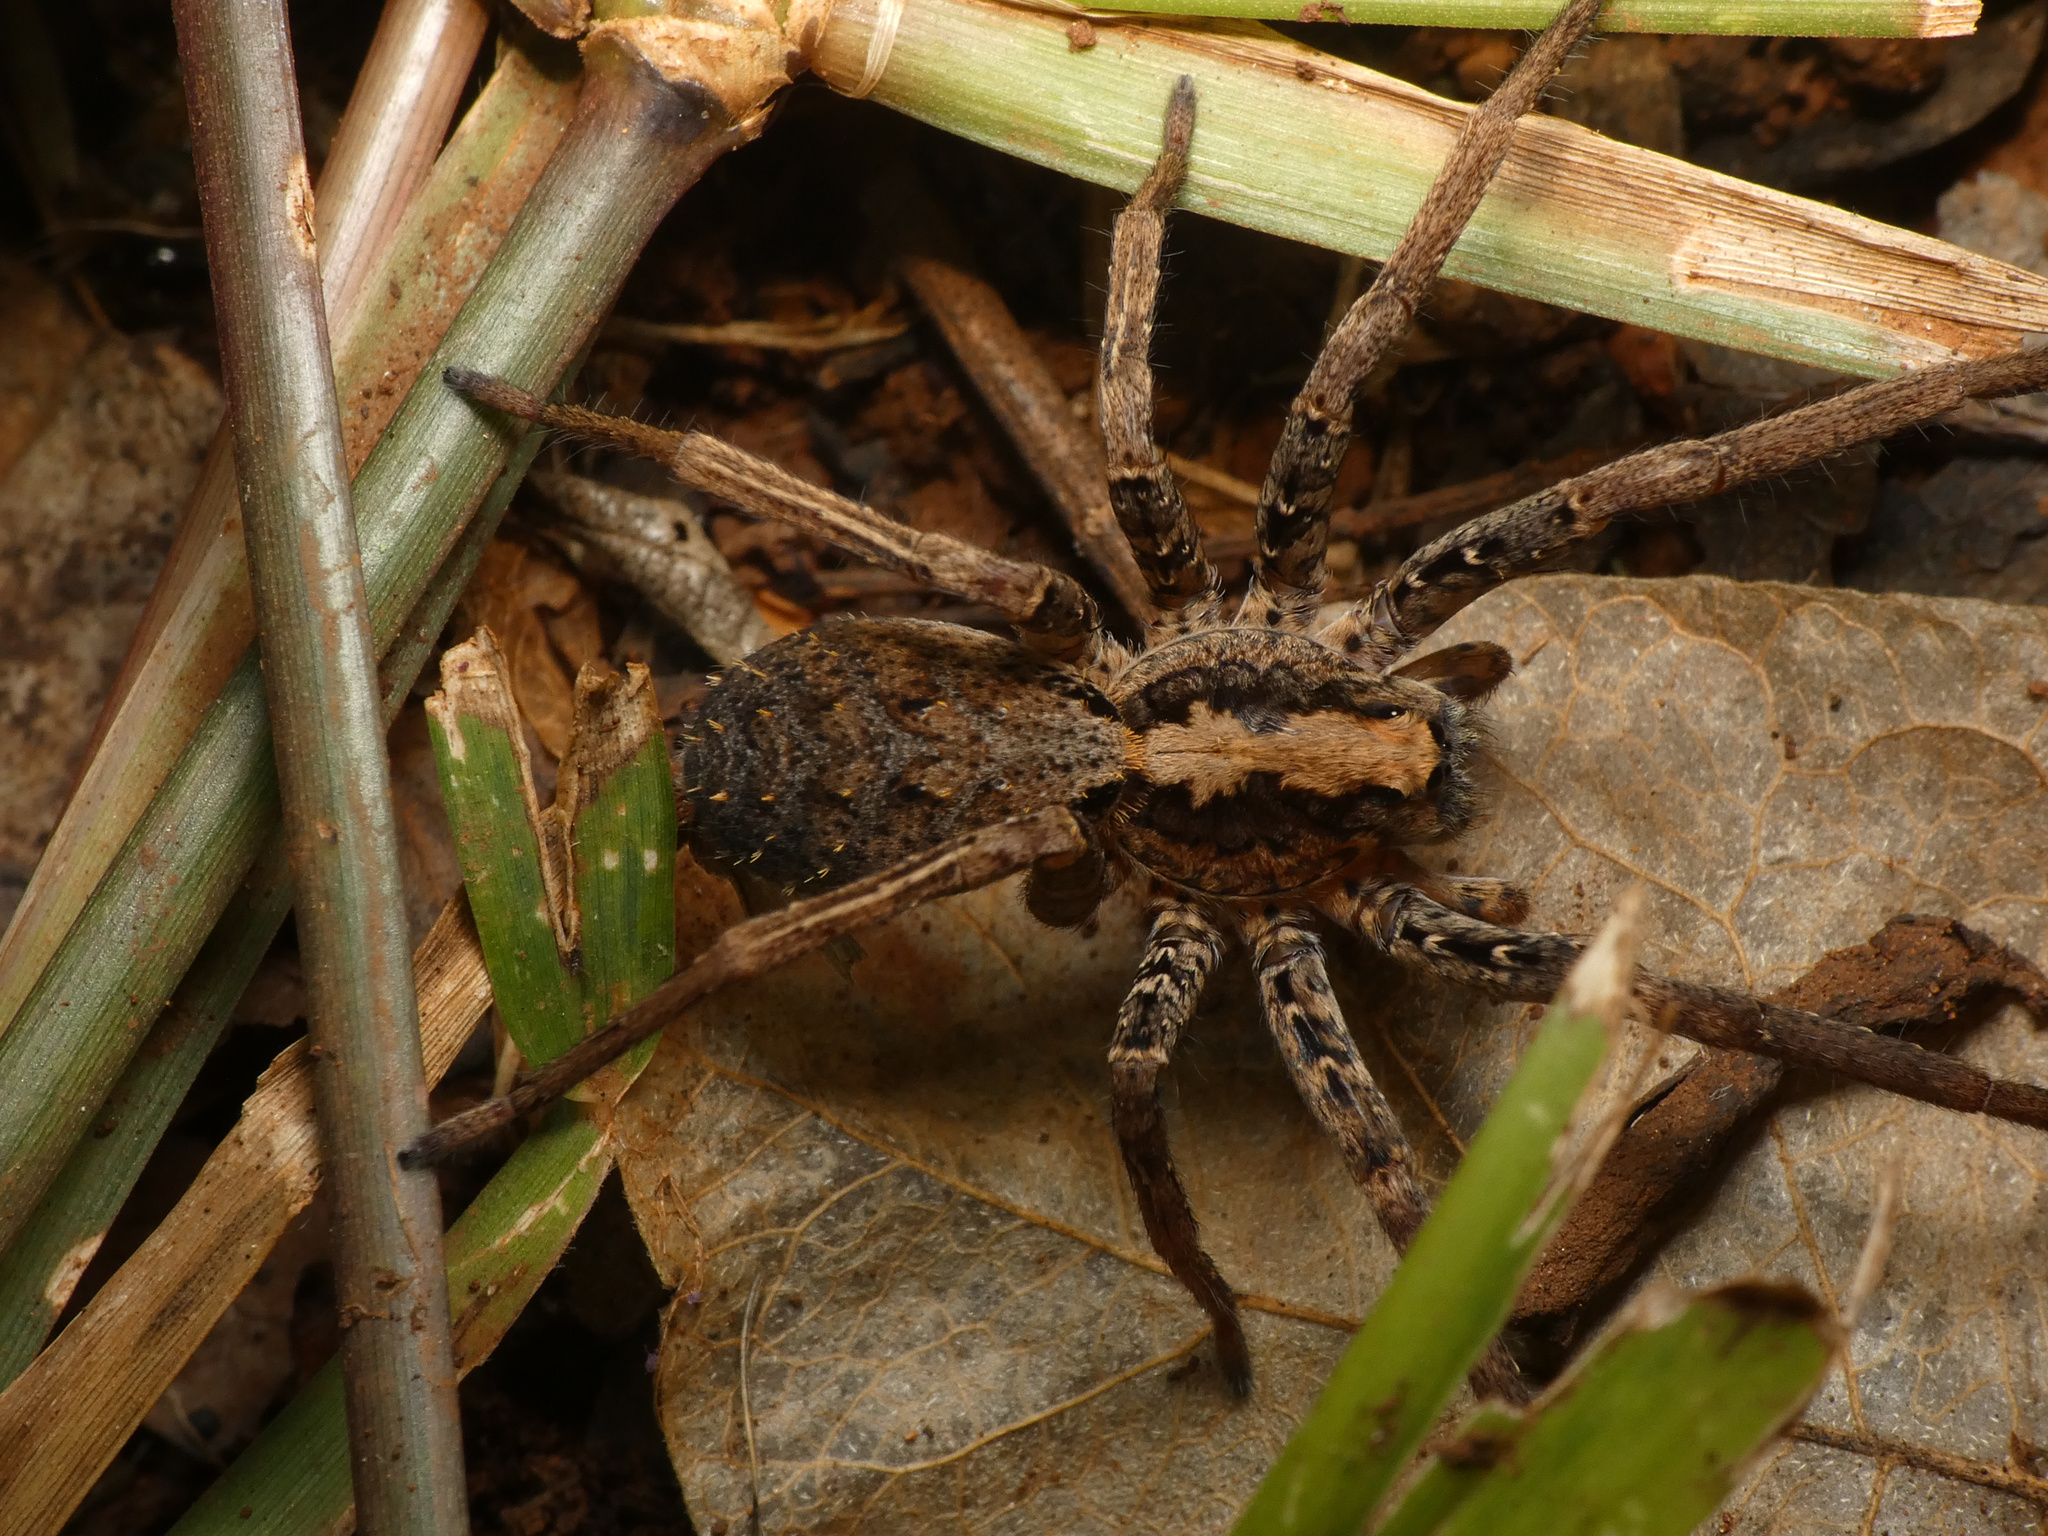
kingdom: Animalia
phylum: Arthropoda
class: Arachnida
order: Araneae
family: Ctenidae
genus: Ctenus
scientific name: Ctenus gulosus
